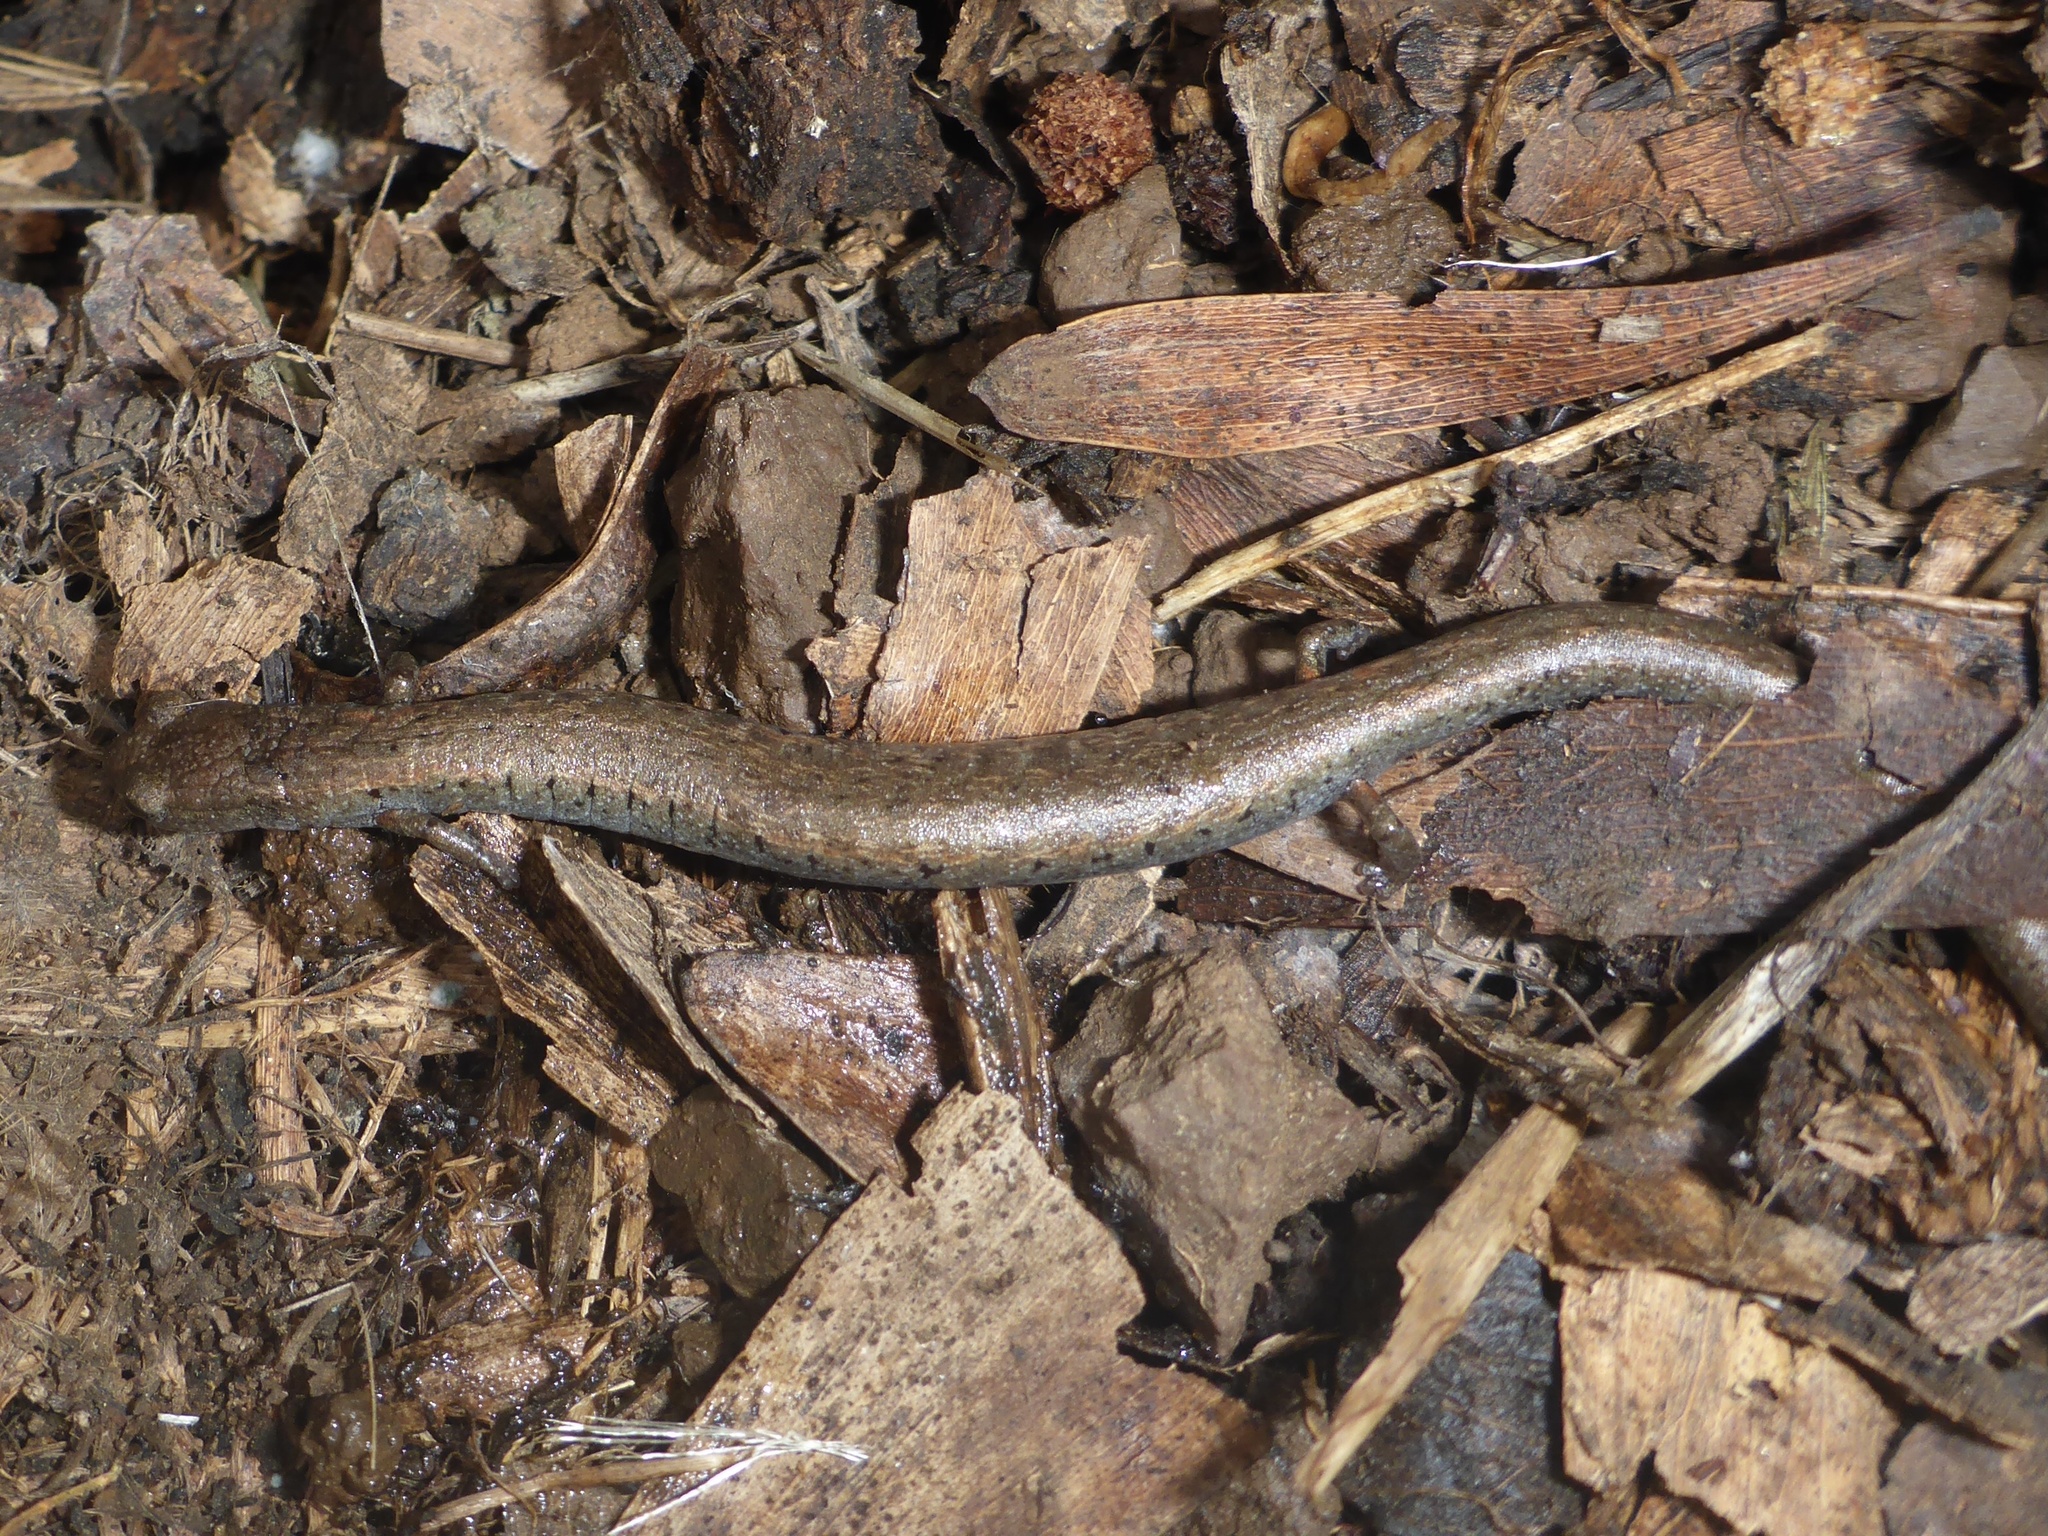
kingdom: Animalia
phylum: Chordata
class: Amphibia
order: Caudata
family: Plethodontidae
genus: Batrachoseps
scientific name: Batrachoseps attenuatus
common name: California slender salamander
